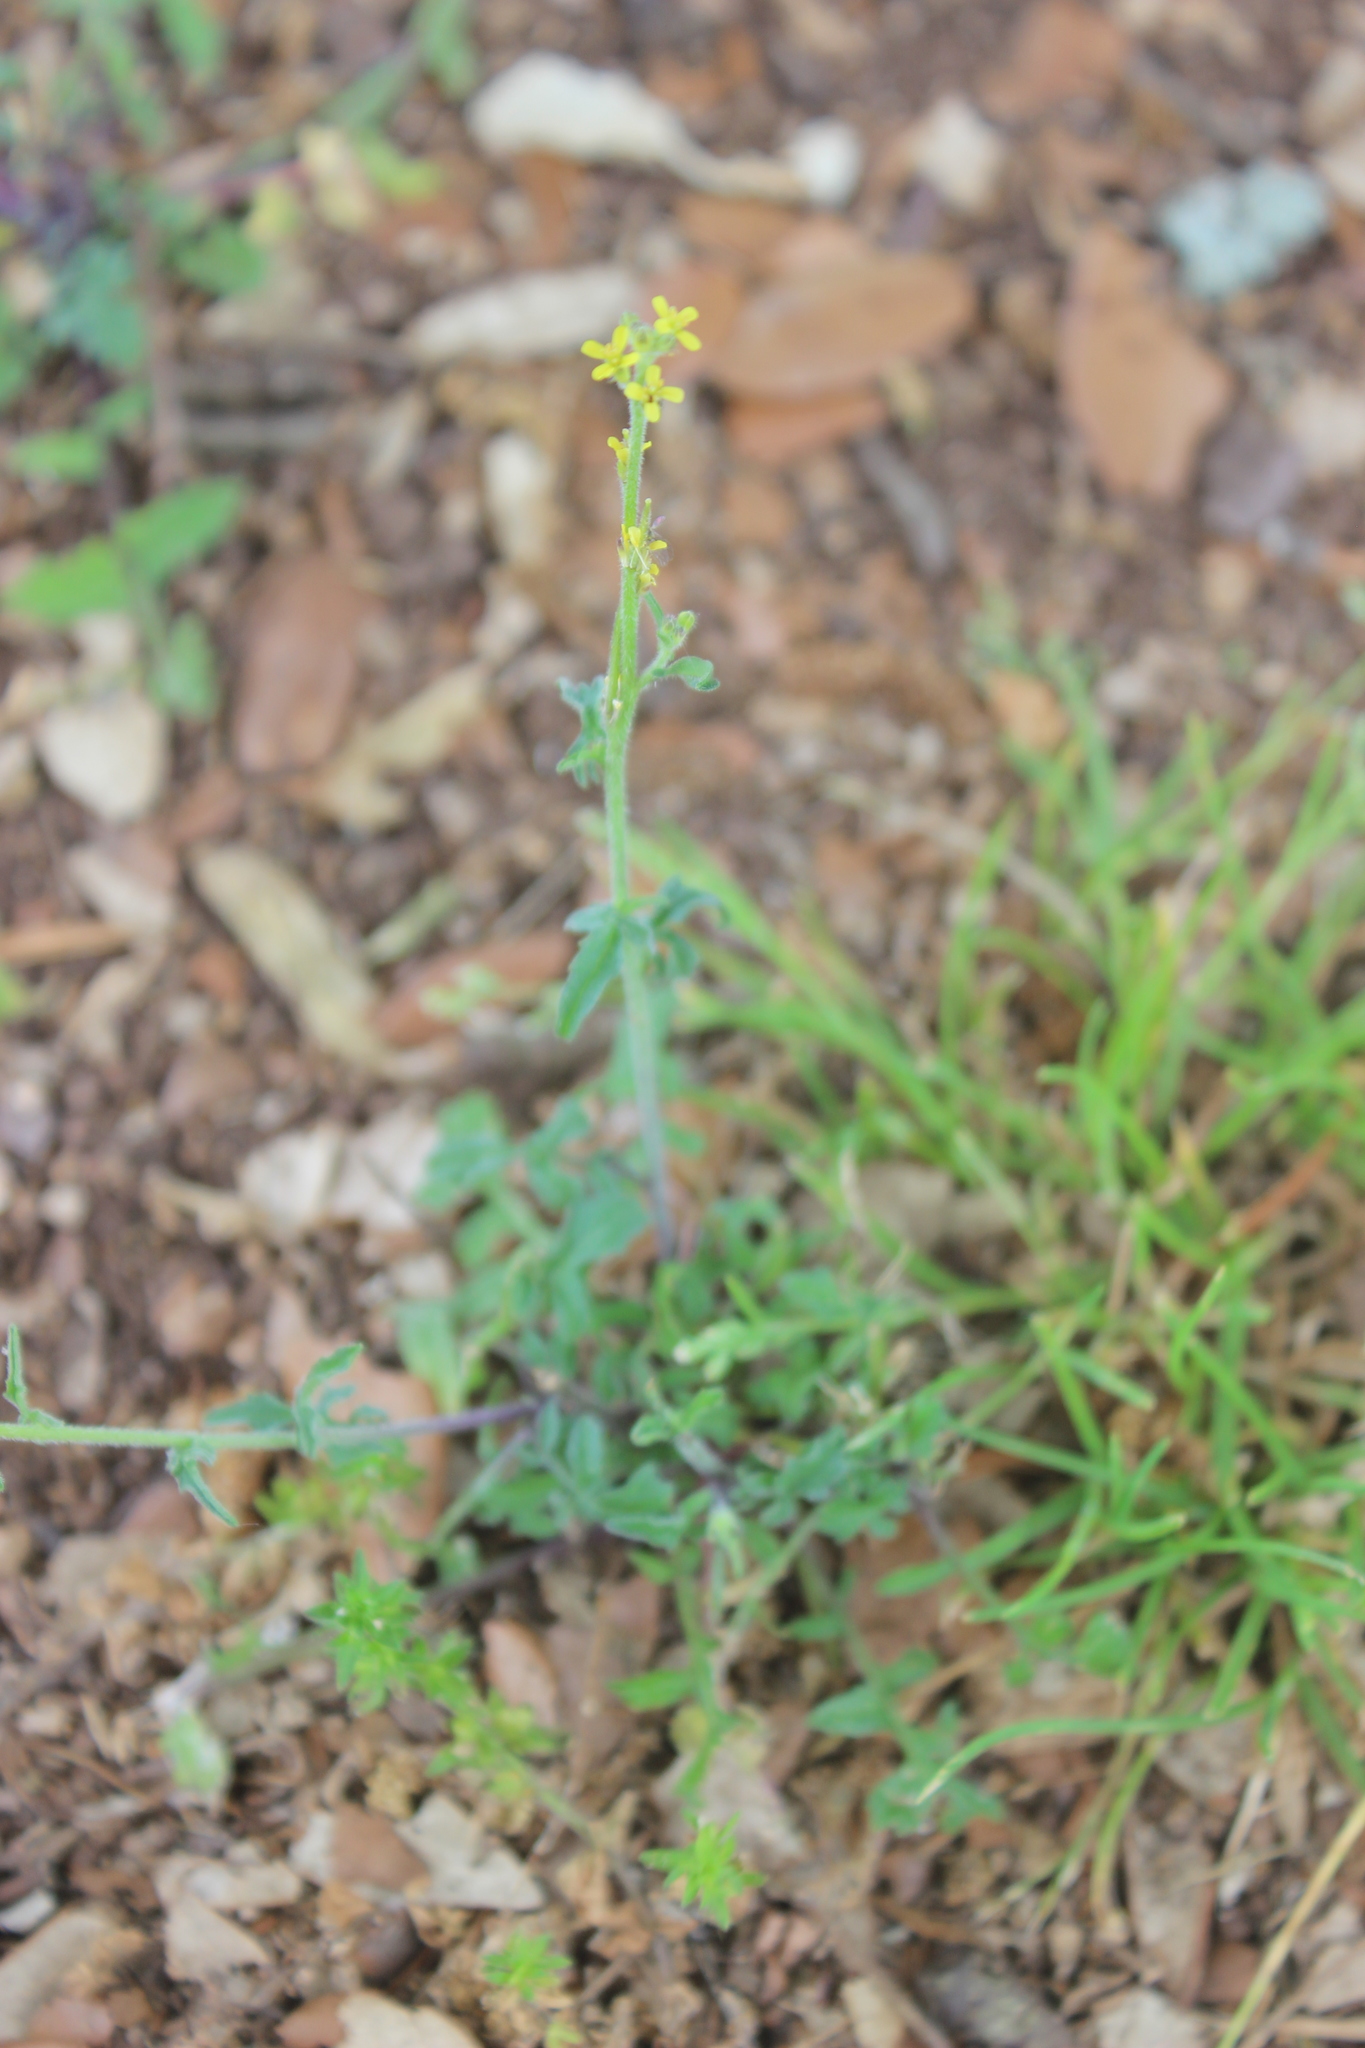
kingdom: Plantae
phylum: Tracheophyta
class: Magnoliopsida
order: Brassicales
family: Brassicaceae
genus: Sisymbrium
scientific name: Sisymbrium officinale
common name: Hedge mustard
